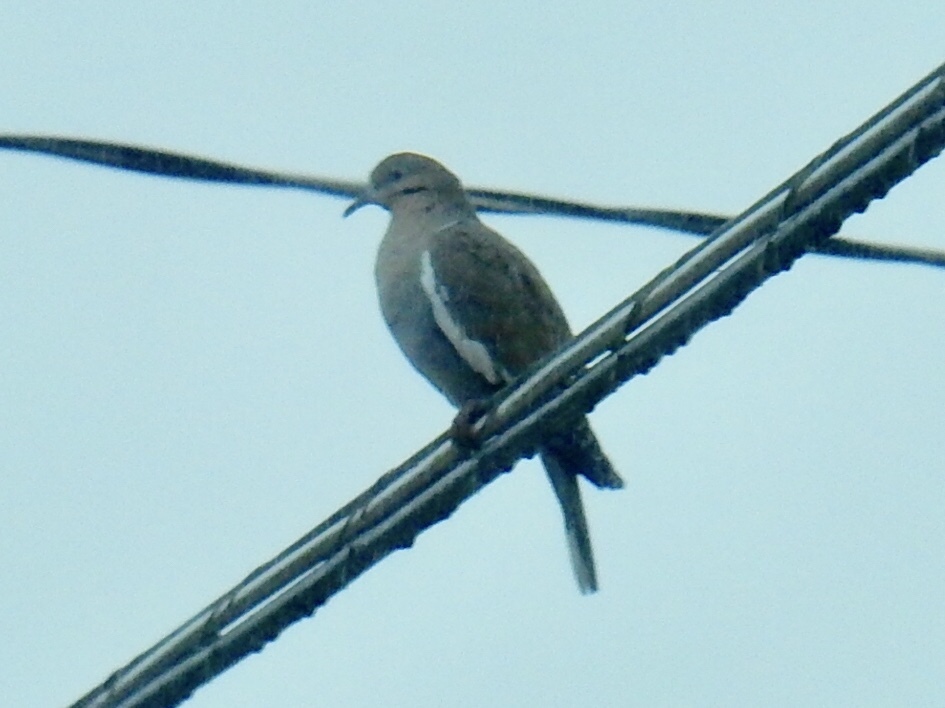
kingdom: Animalia
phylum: Chordata
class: Aves
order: Columbiformes
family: Columbidae
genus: Zenaida
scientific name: Zenaida asiatica
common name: White-winged dove
